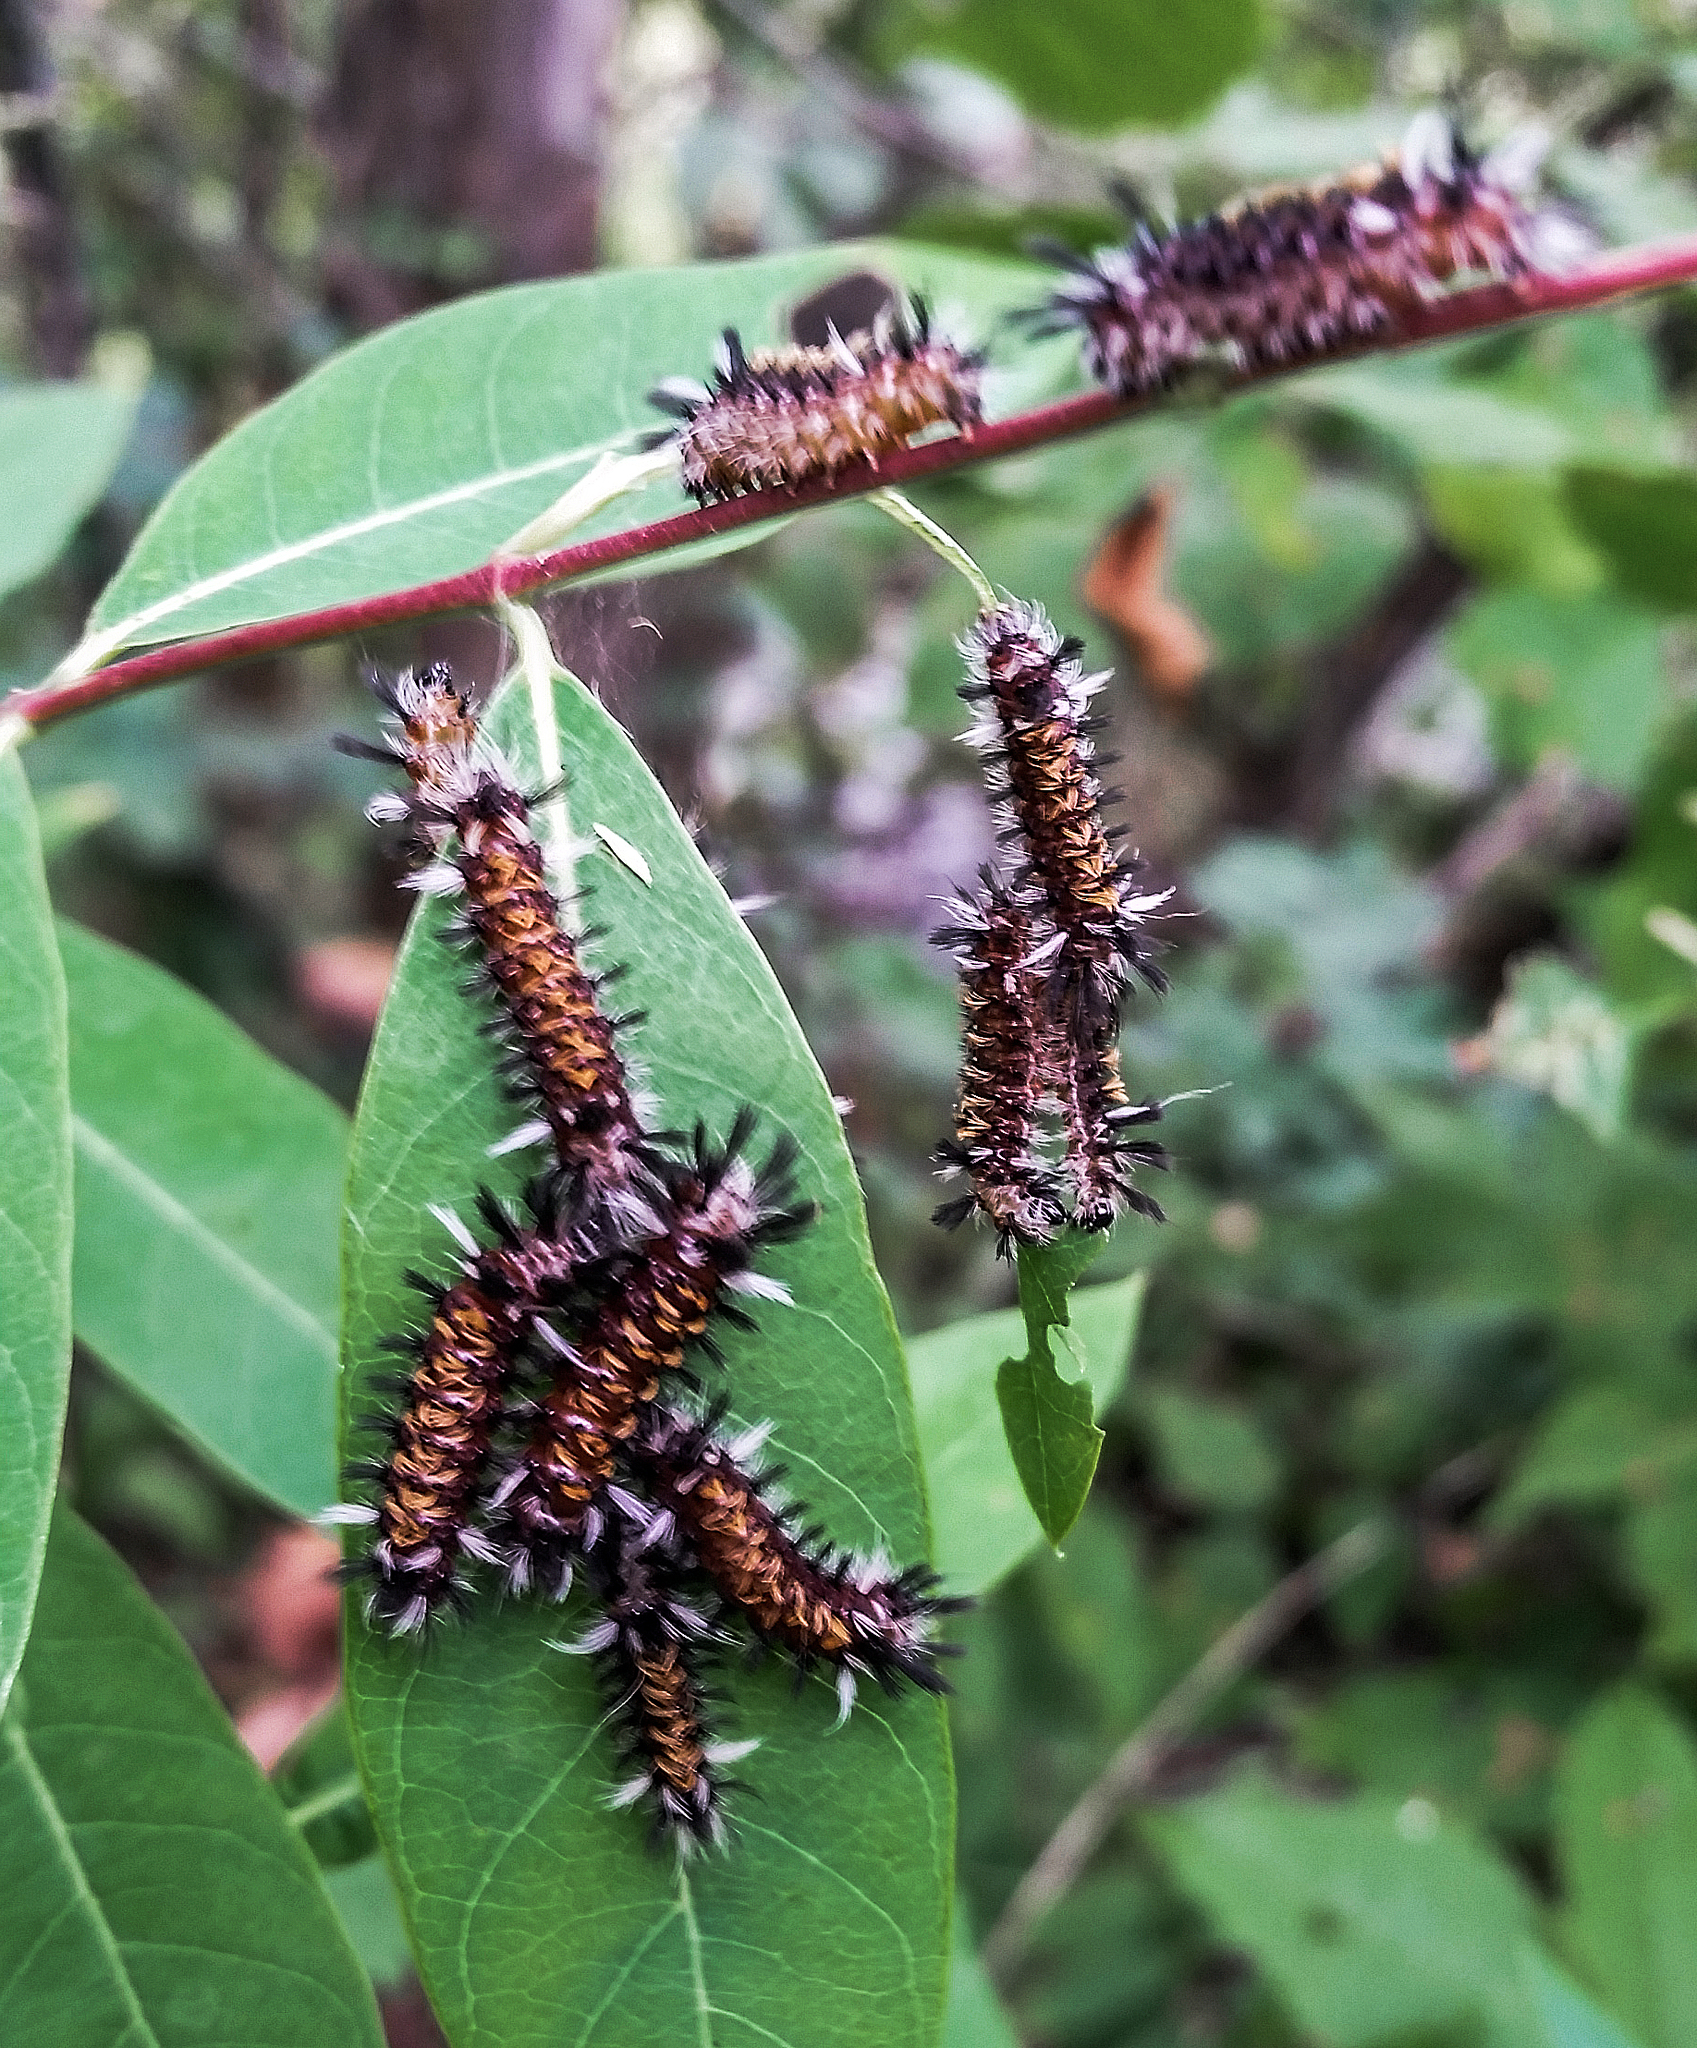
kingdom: Animalia
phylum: Arthropoda
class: Insecta
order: Lepidoptera
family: Erebidae
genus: Euchaetes
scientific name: Euchaetes egle
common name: Milkweed tussock moth
